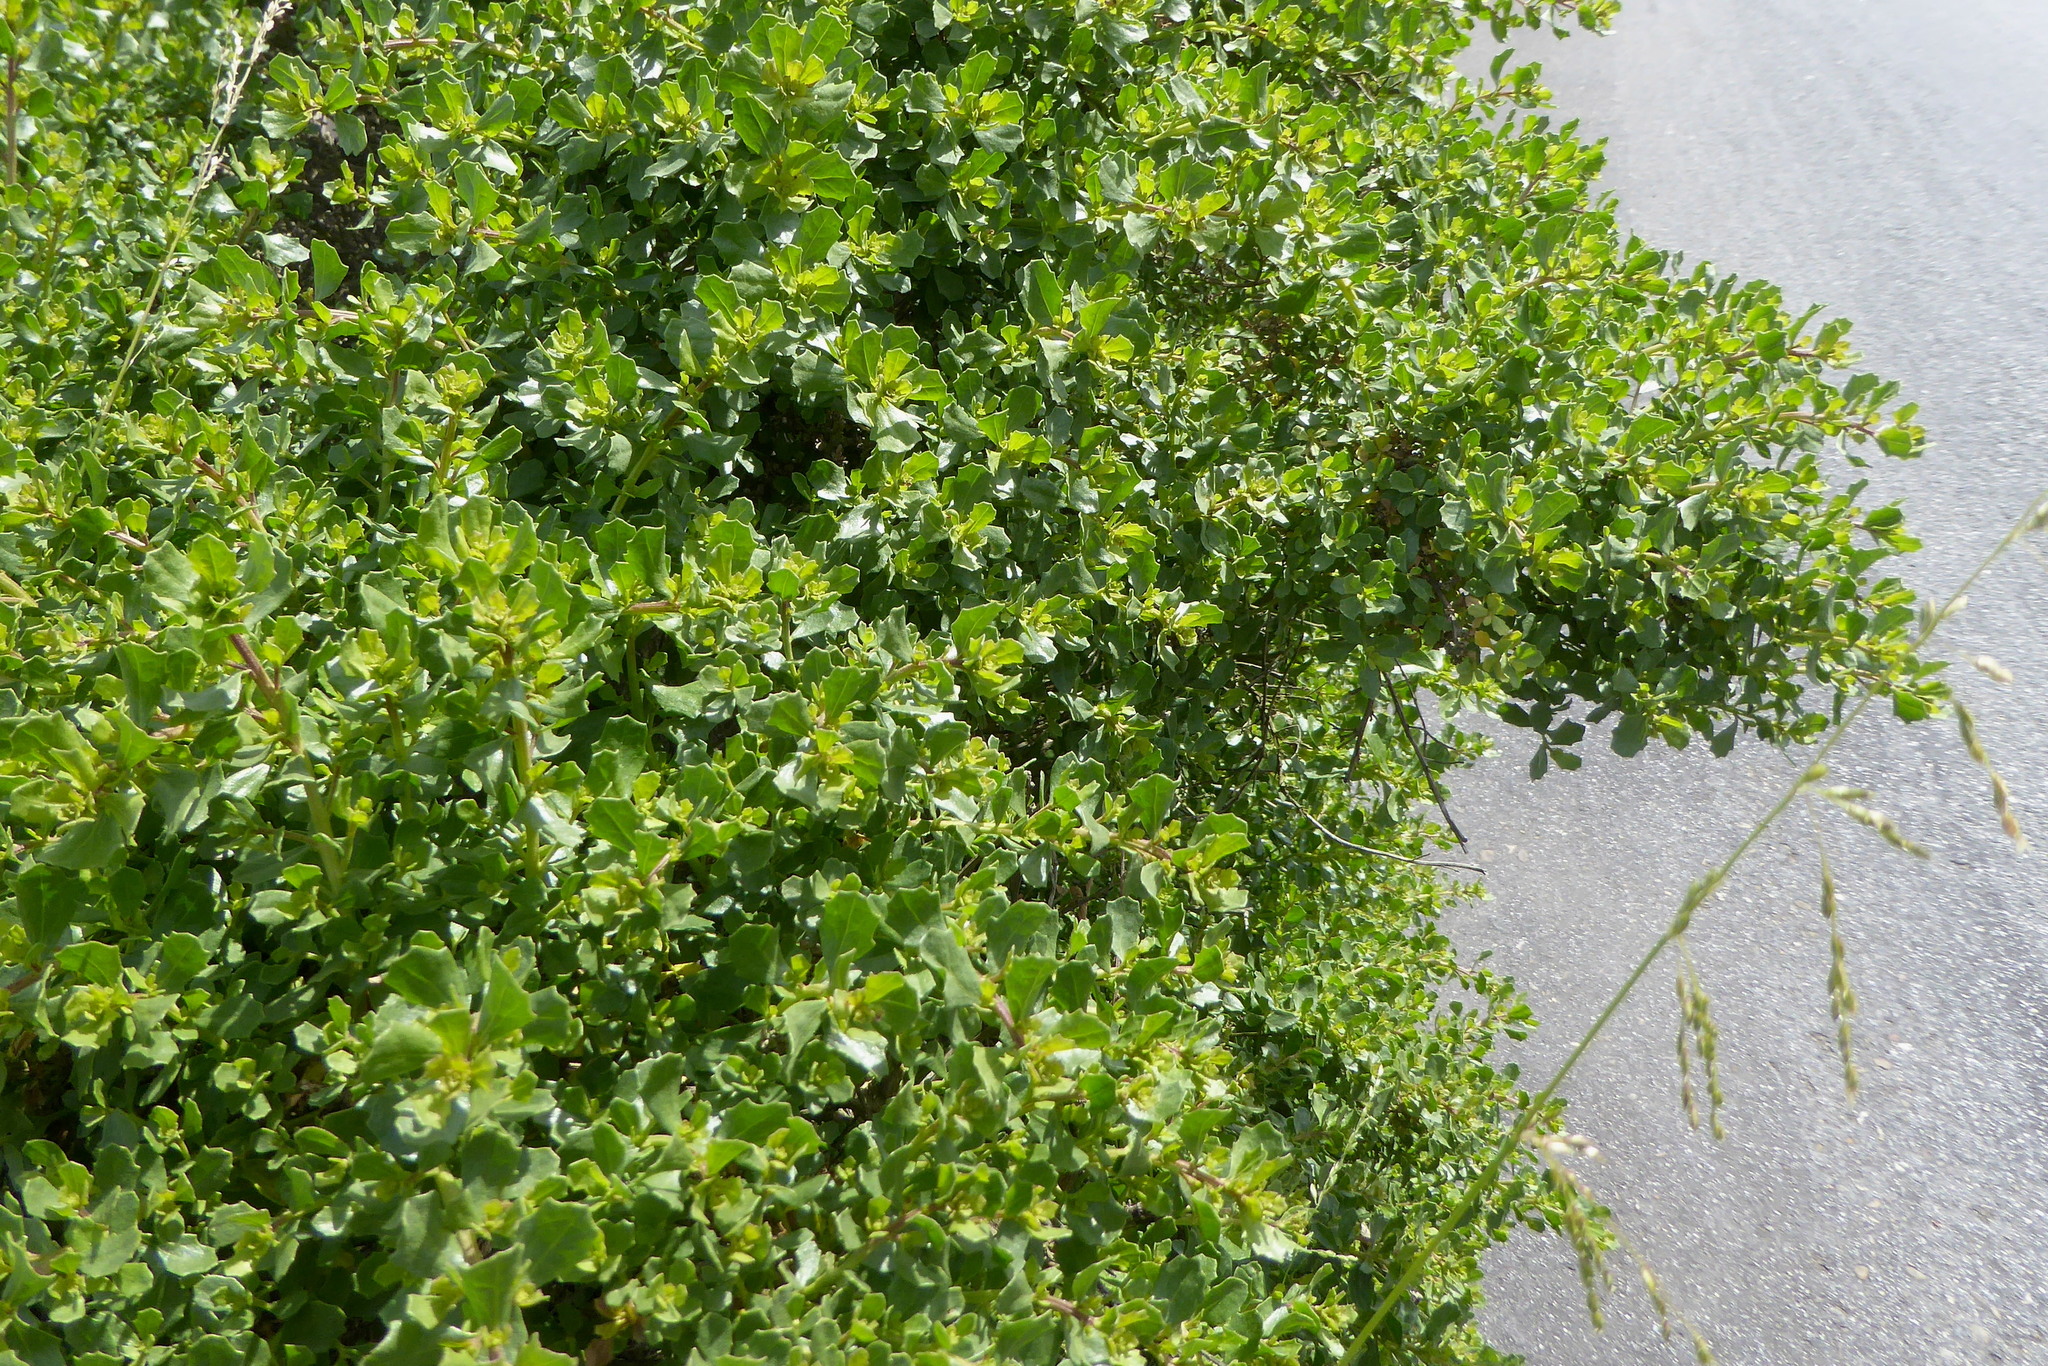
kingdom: Plantae
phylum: Tracheophyta
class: Magnoliopsida
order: Asterales
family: Asteraceae
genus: Baccharis
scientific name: Baccharis pilularis
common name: Coyotebrush
